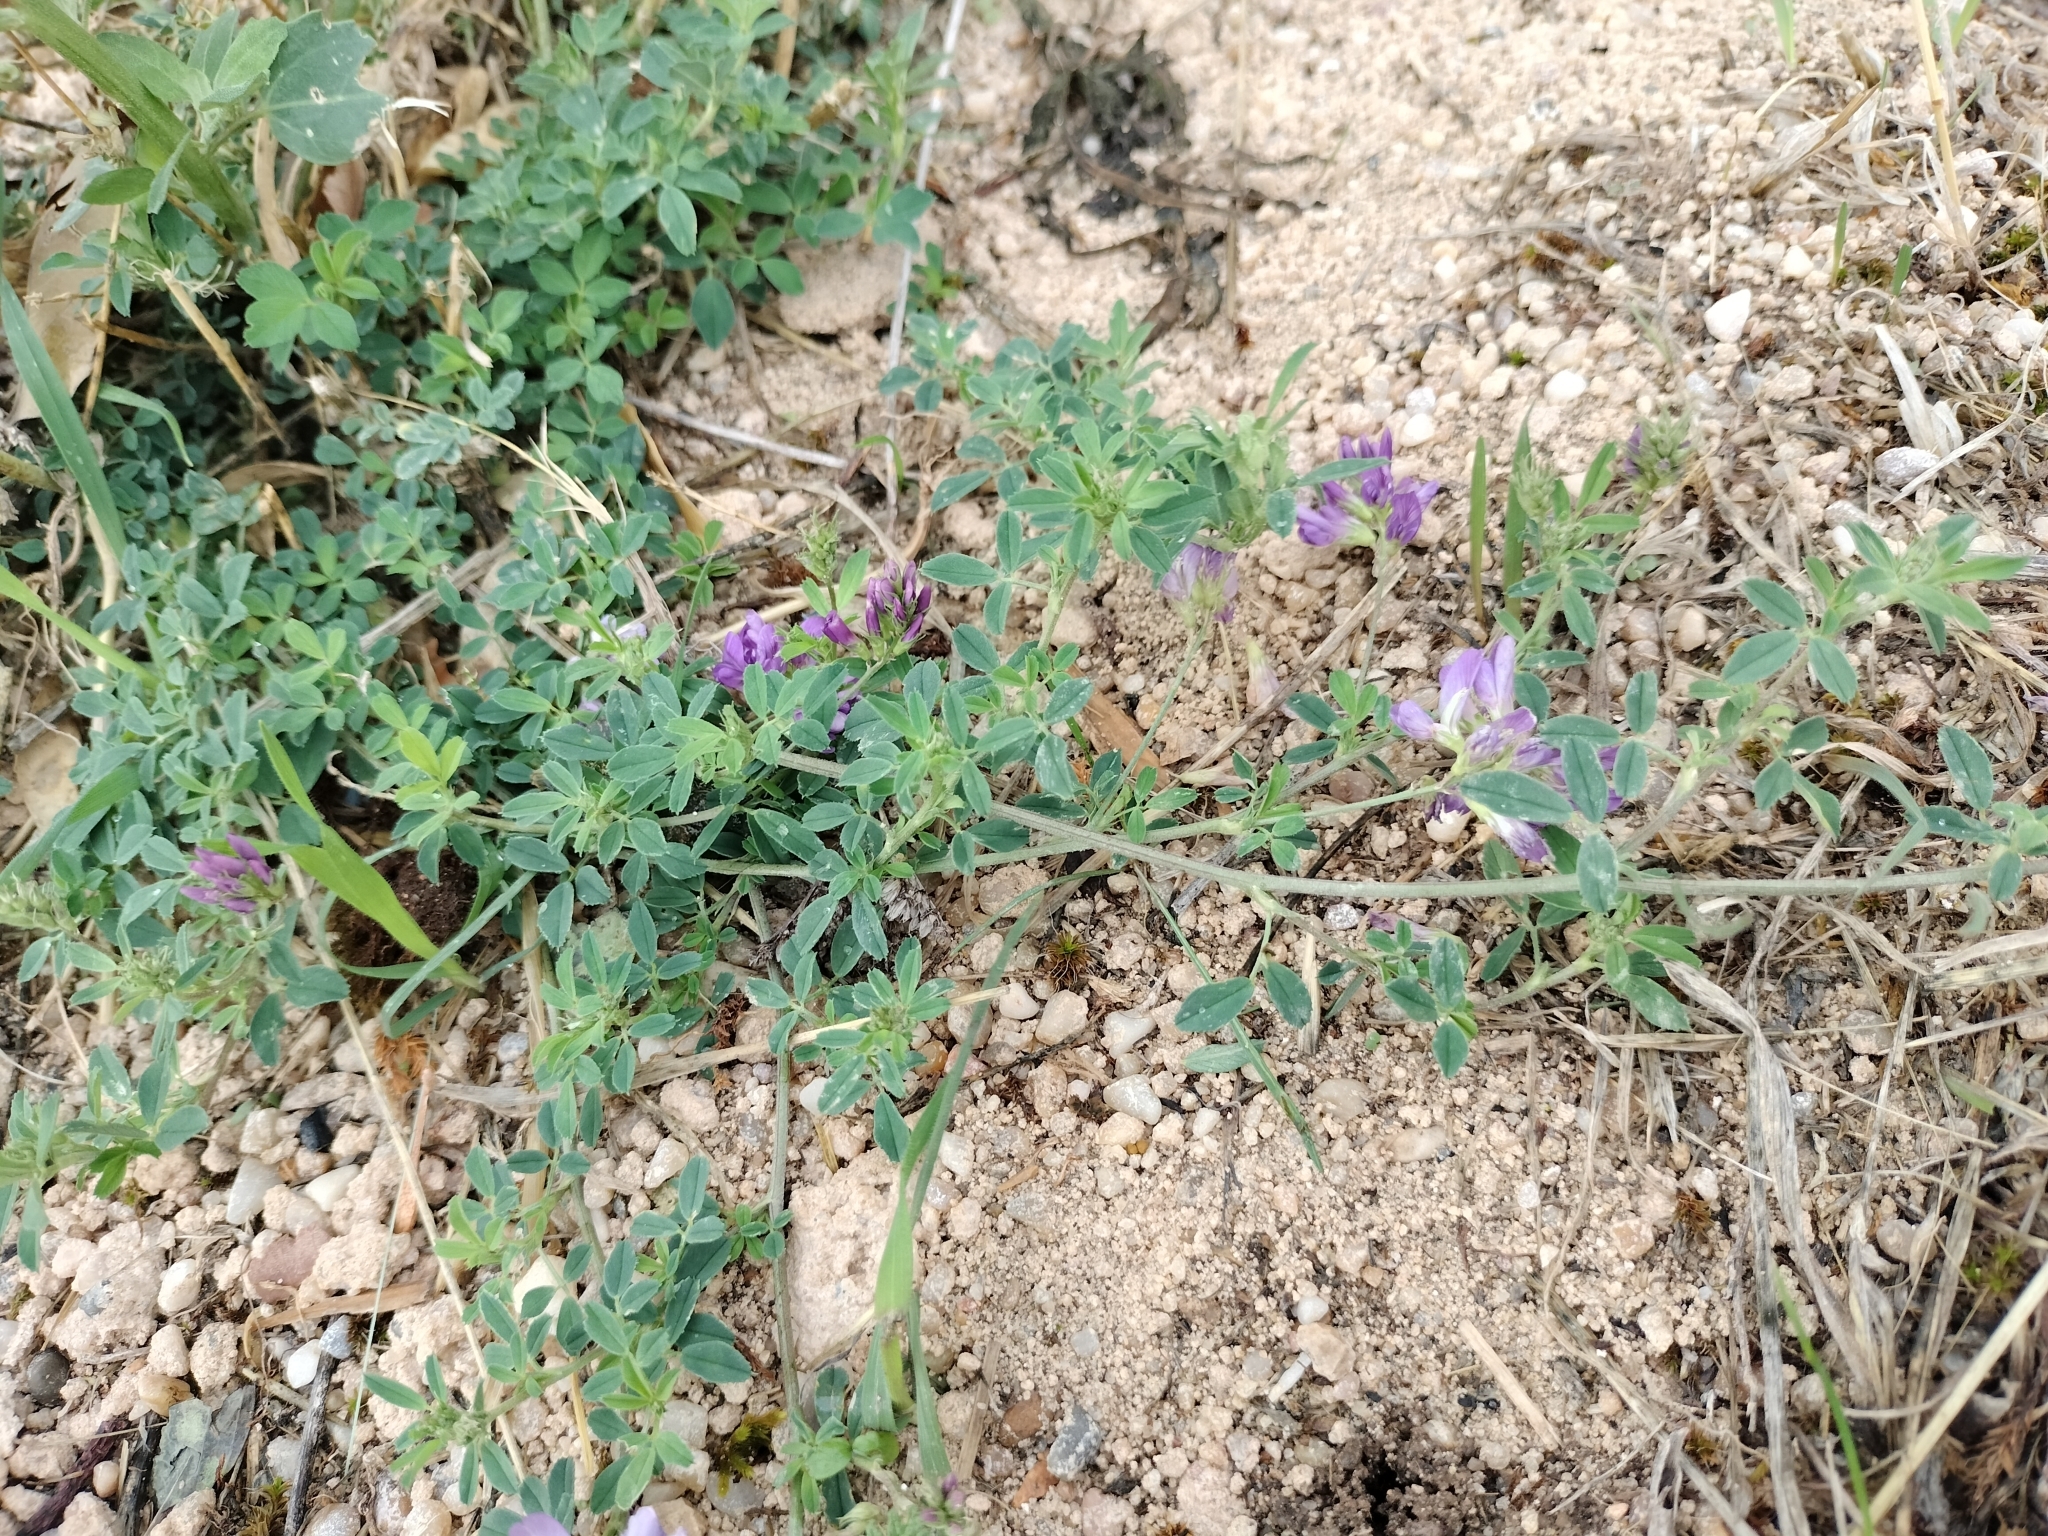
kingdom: Plantae
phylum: Tracheophyta
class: Magnoliopsida
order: Fabales
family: Fabaceae
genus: Medicago
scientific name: Medicago sativa
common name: Alfalfa
